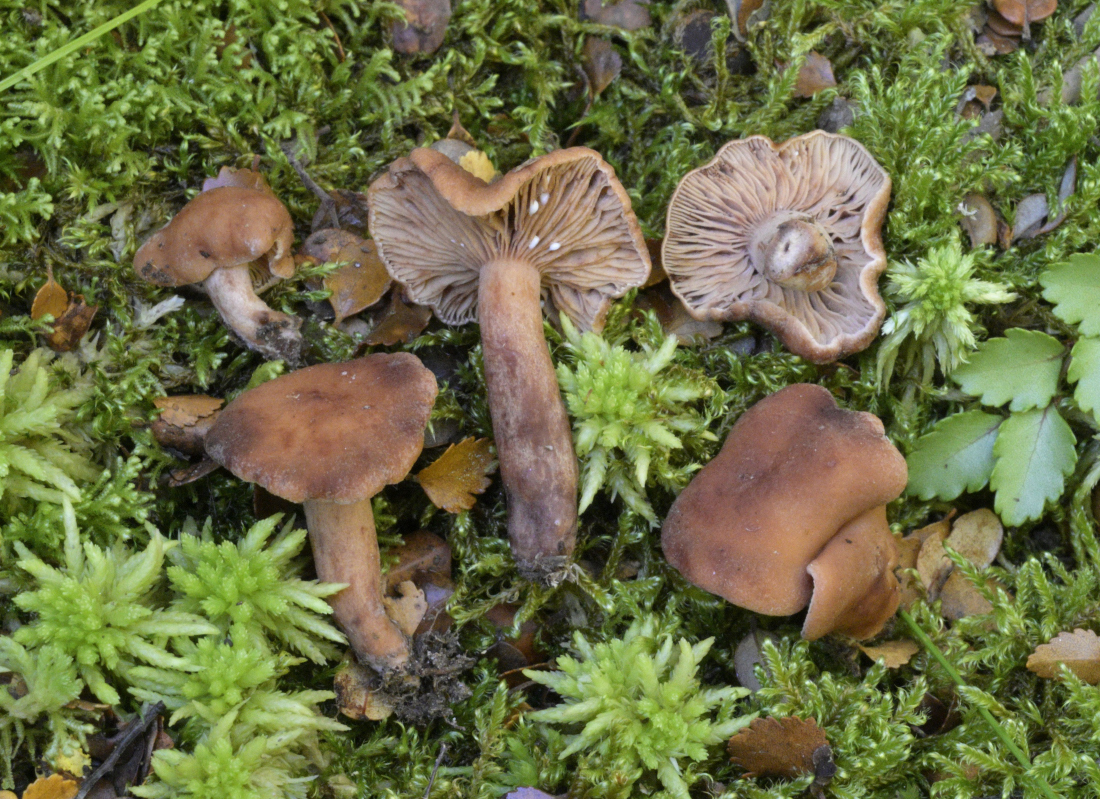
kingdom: Fungi
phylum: Basidiomycota
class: Agaricomycetes
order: Russulales
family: Russulaceae
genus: Lactarius
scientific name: Lactarius umerensis
